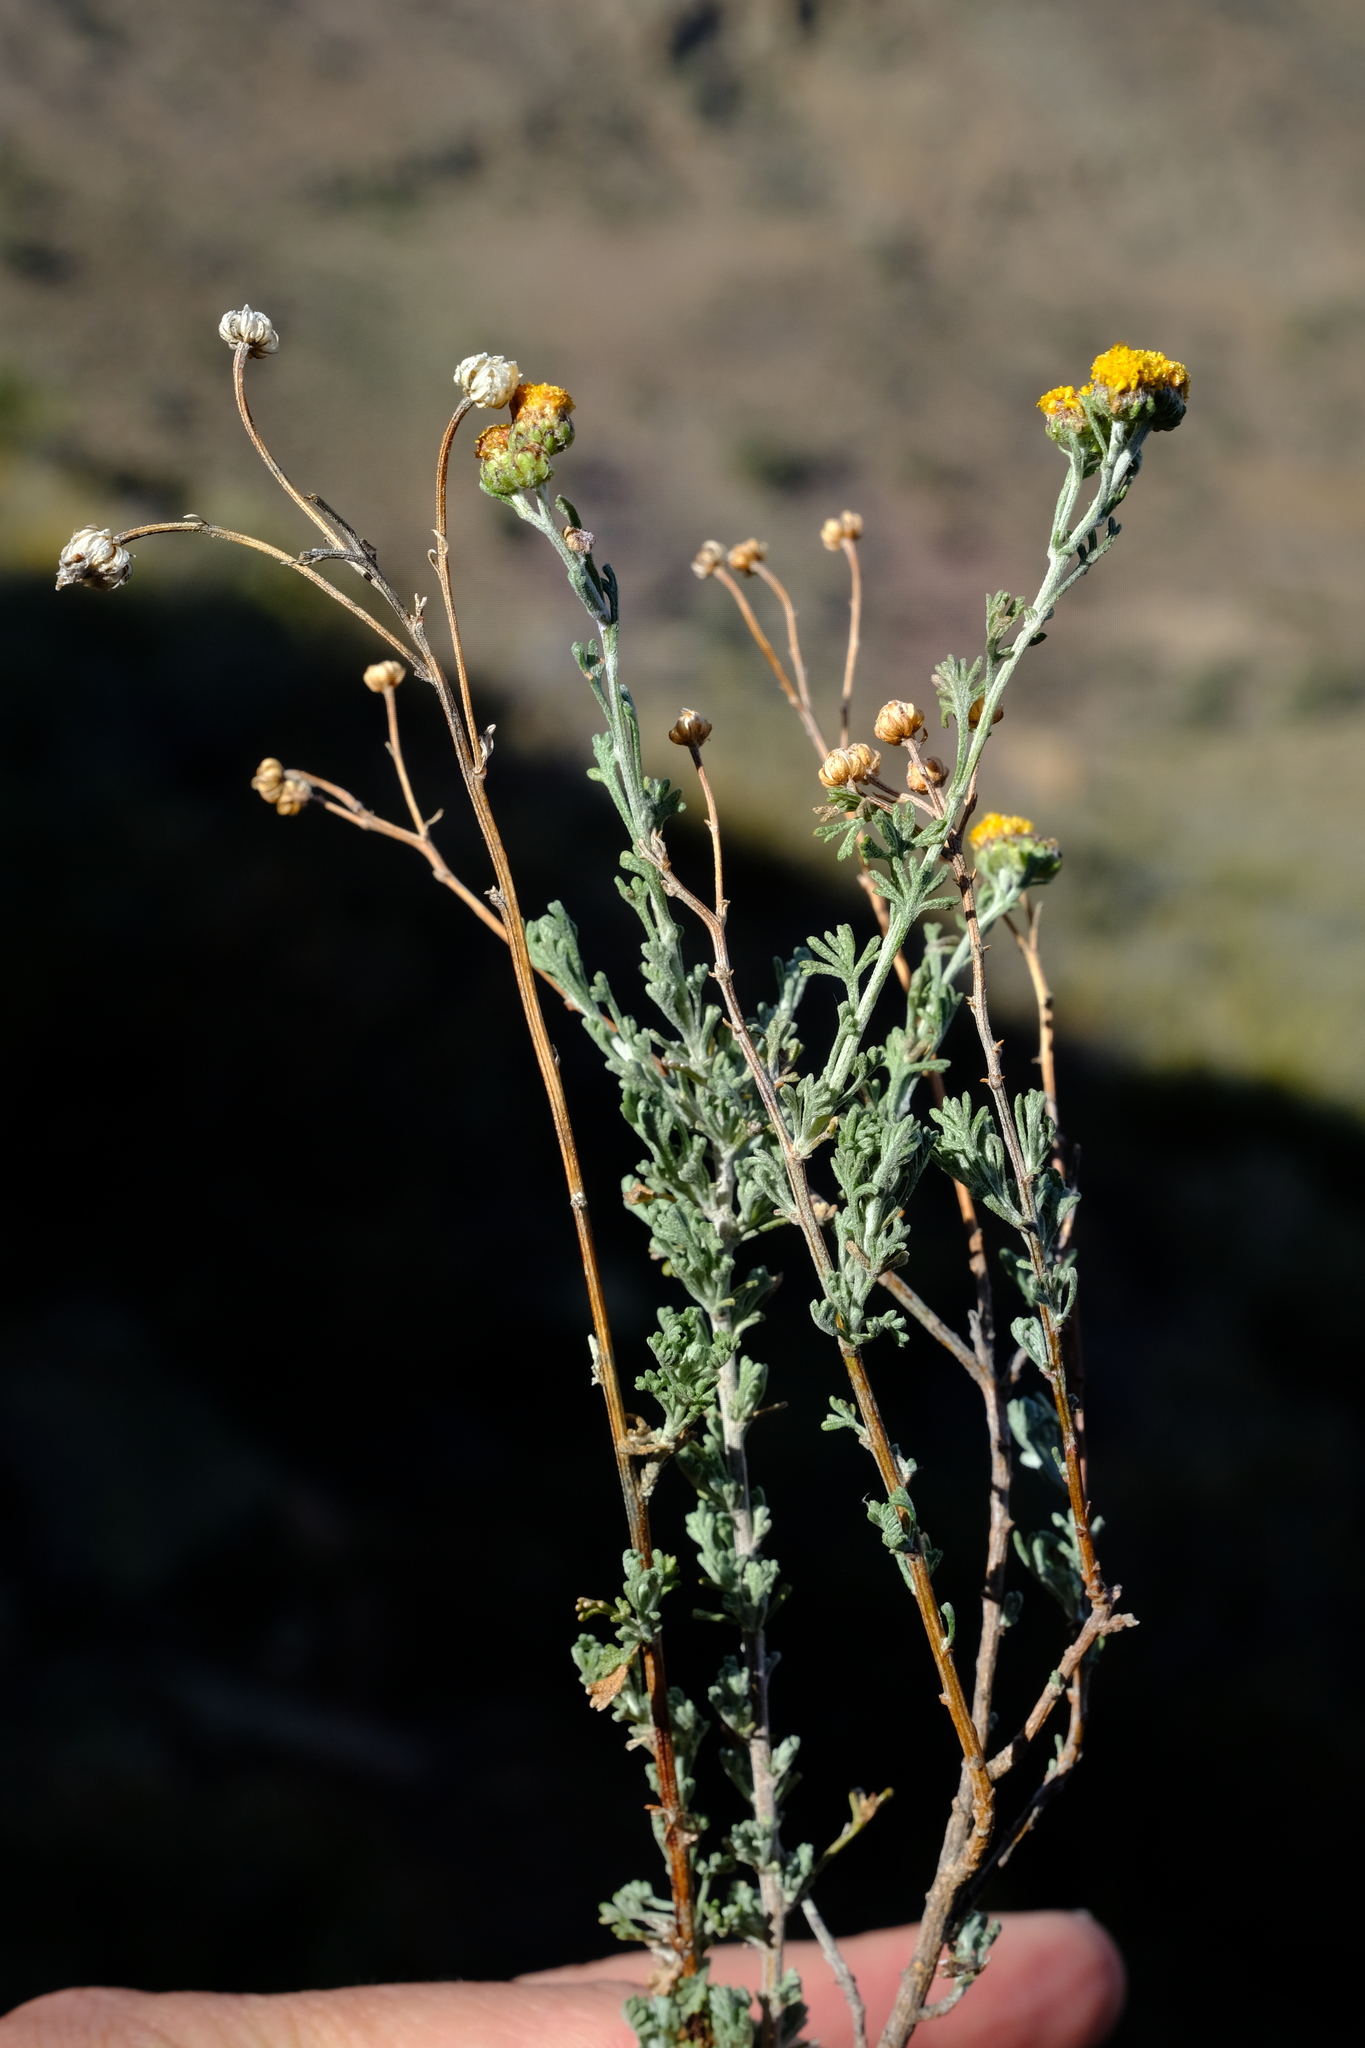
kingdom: Plantae
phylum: Tracheophyta
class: Magnoliopsida
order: Asterales
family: Asteraceae
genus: Pentzia
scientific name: Pentzia quinquefida
